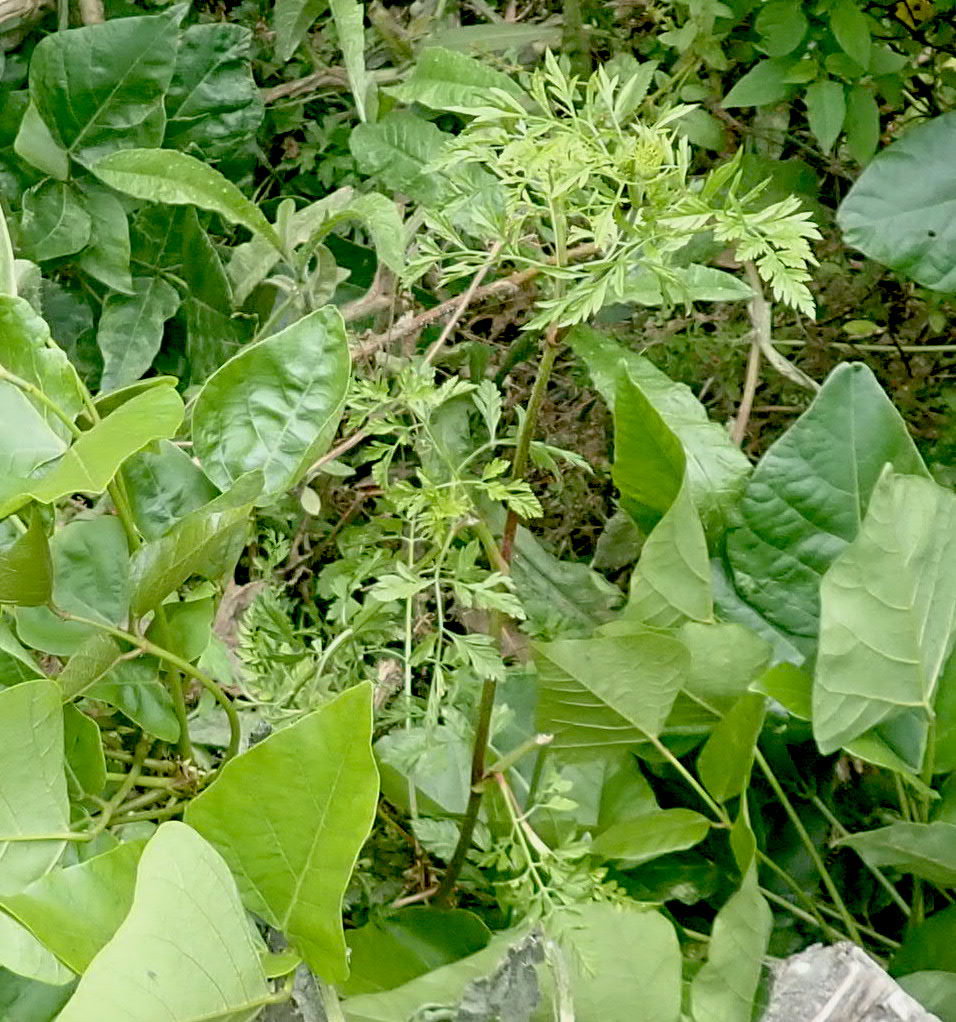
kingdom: Plantae
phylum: Tracheophyta
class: Magnoliopsida
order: Apiales
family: Apiaceae
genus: Daucus
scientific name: Daucus carota
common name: Wild carrot
